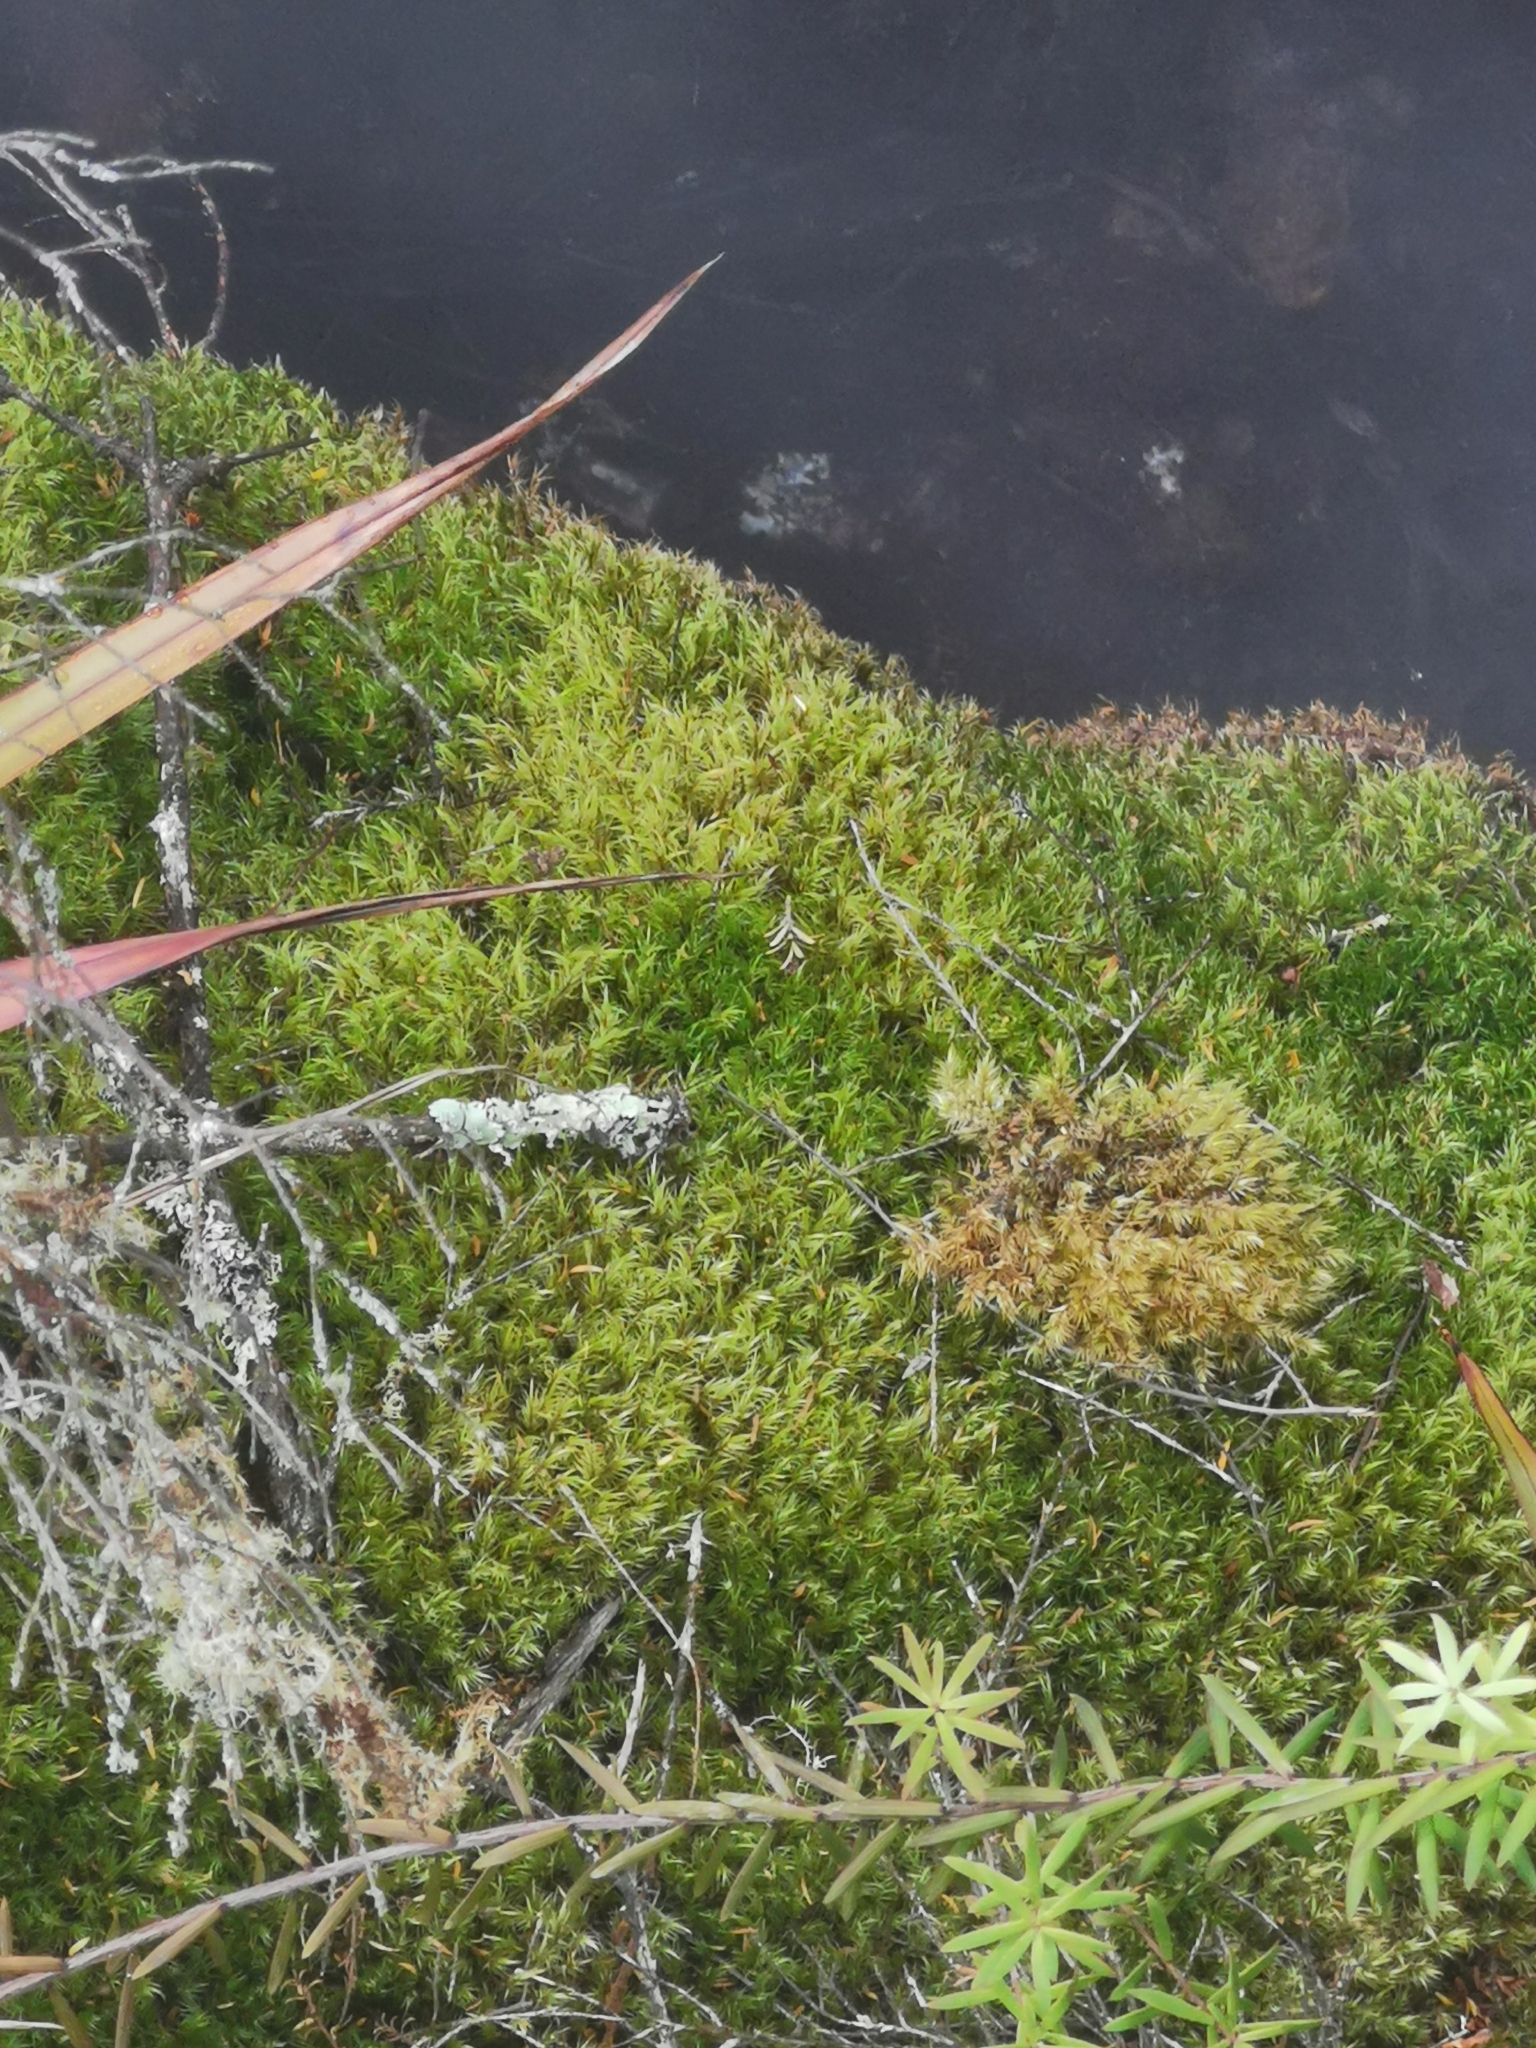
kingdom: Plantae
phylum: Bryophyta
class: Bryopsida
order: Dicranales
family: Dicranaceae
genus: Dicranoloma
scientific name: Dicranoloma billardieri
